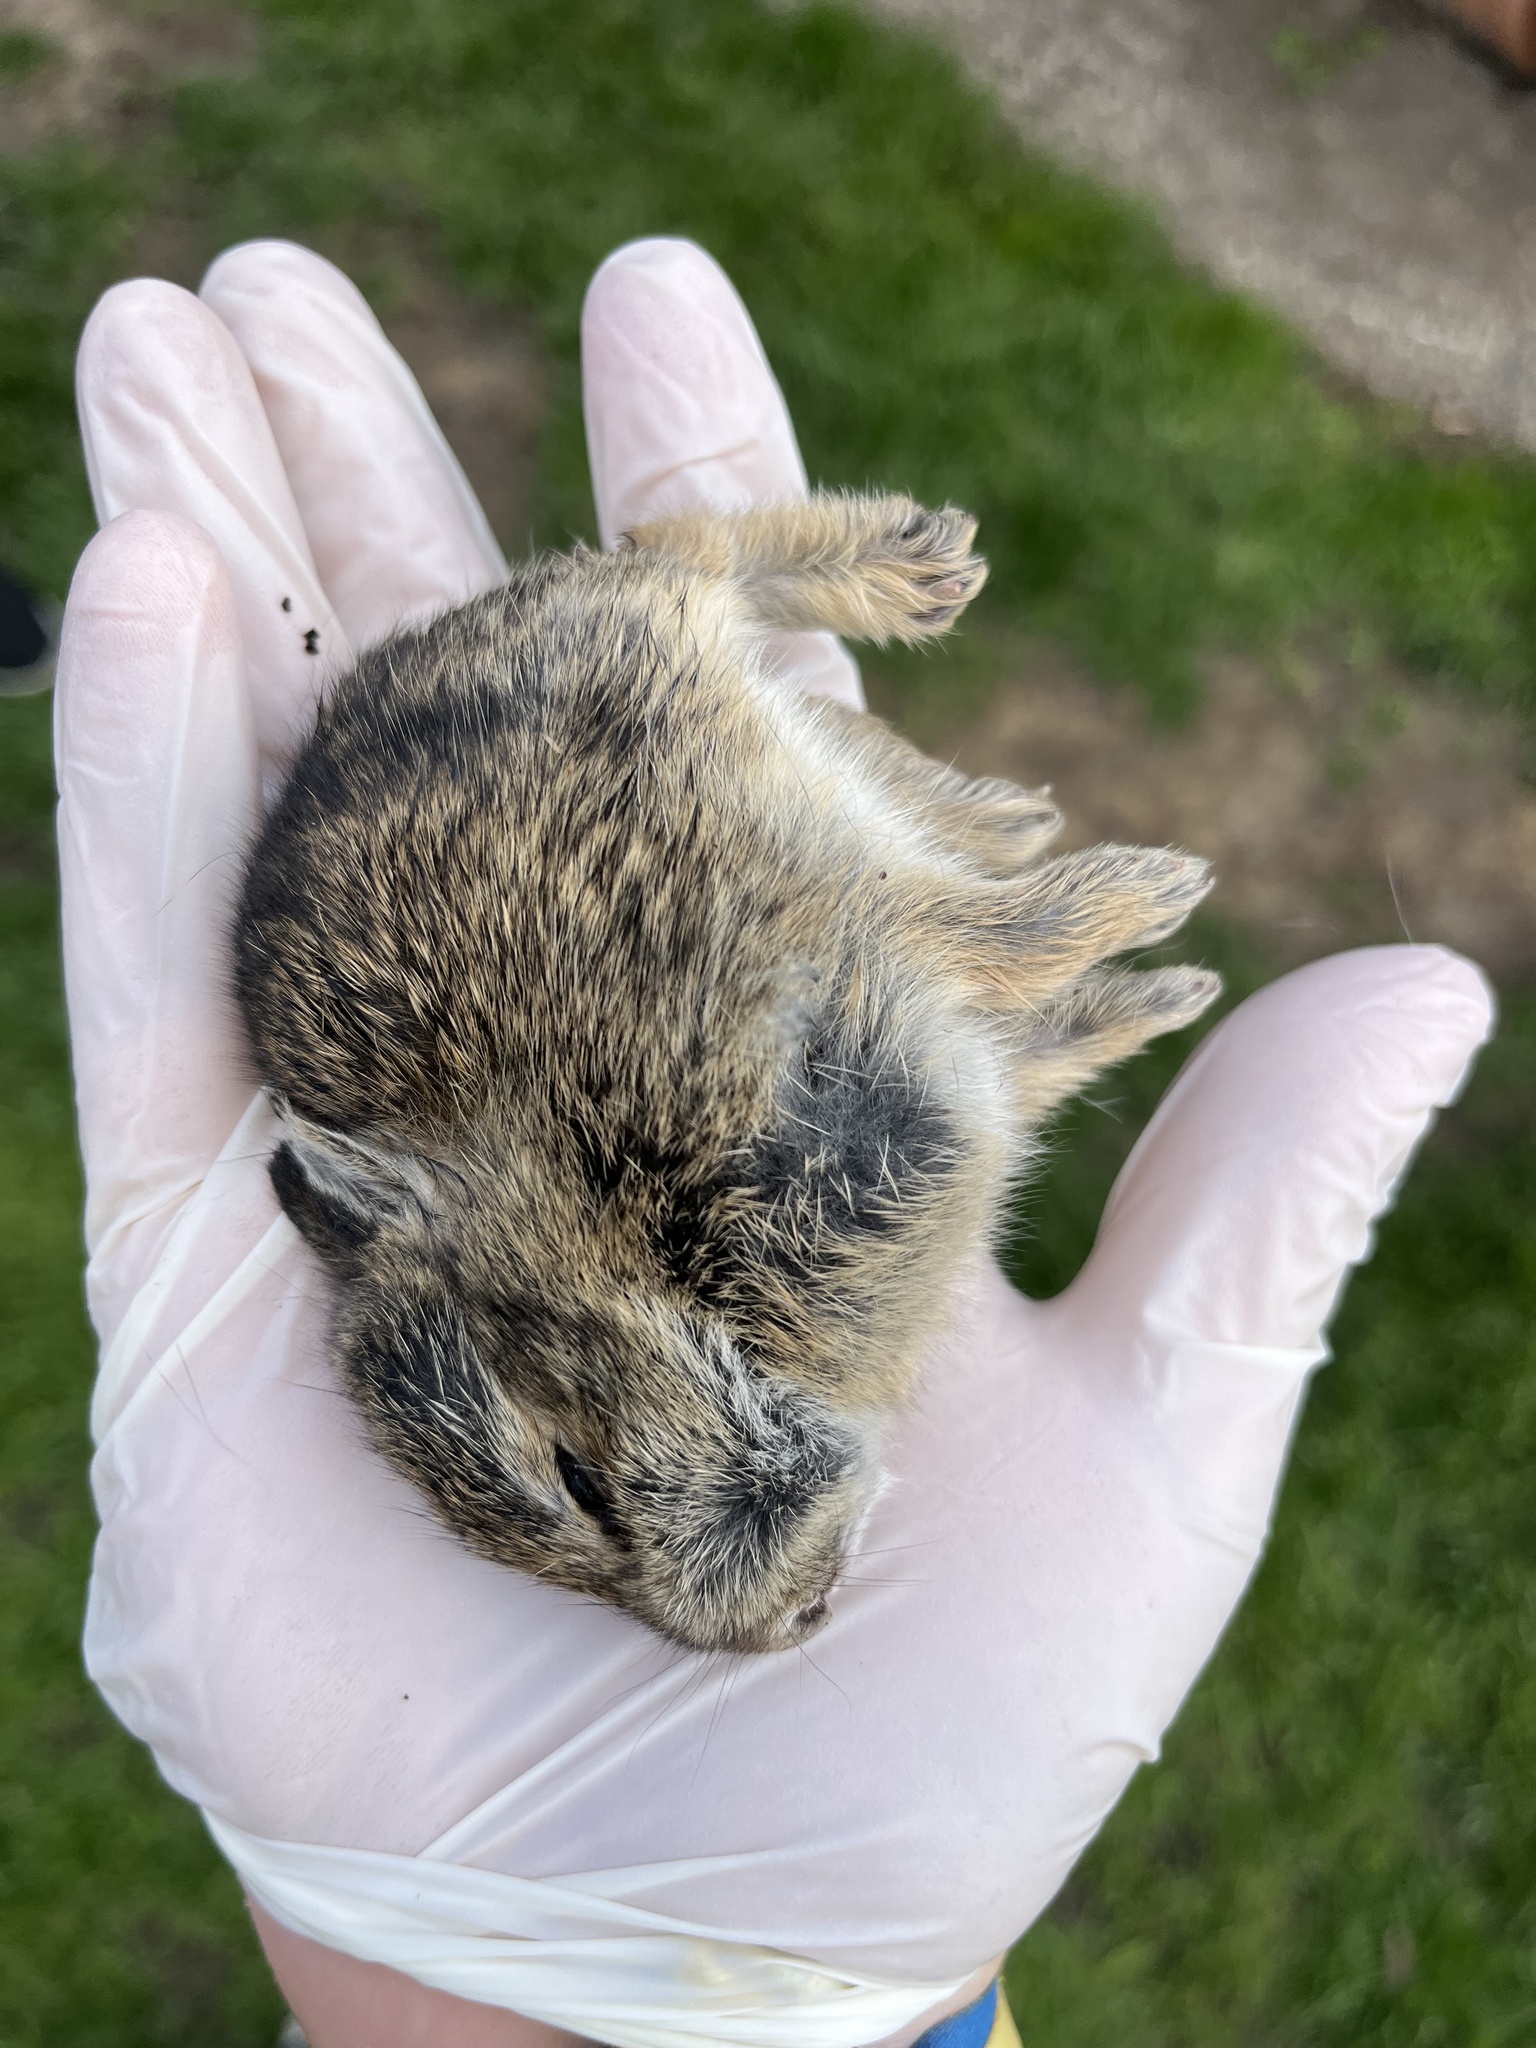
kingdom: Animalia
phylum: Chordata
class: Mammalia
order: Lagomorpha
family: Leporidae
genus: Sylvilagus
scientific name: Sylvilagus floridanus
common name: Eastern cottontail
